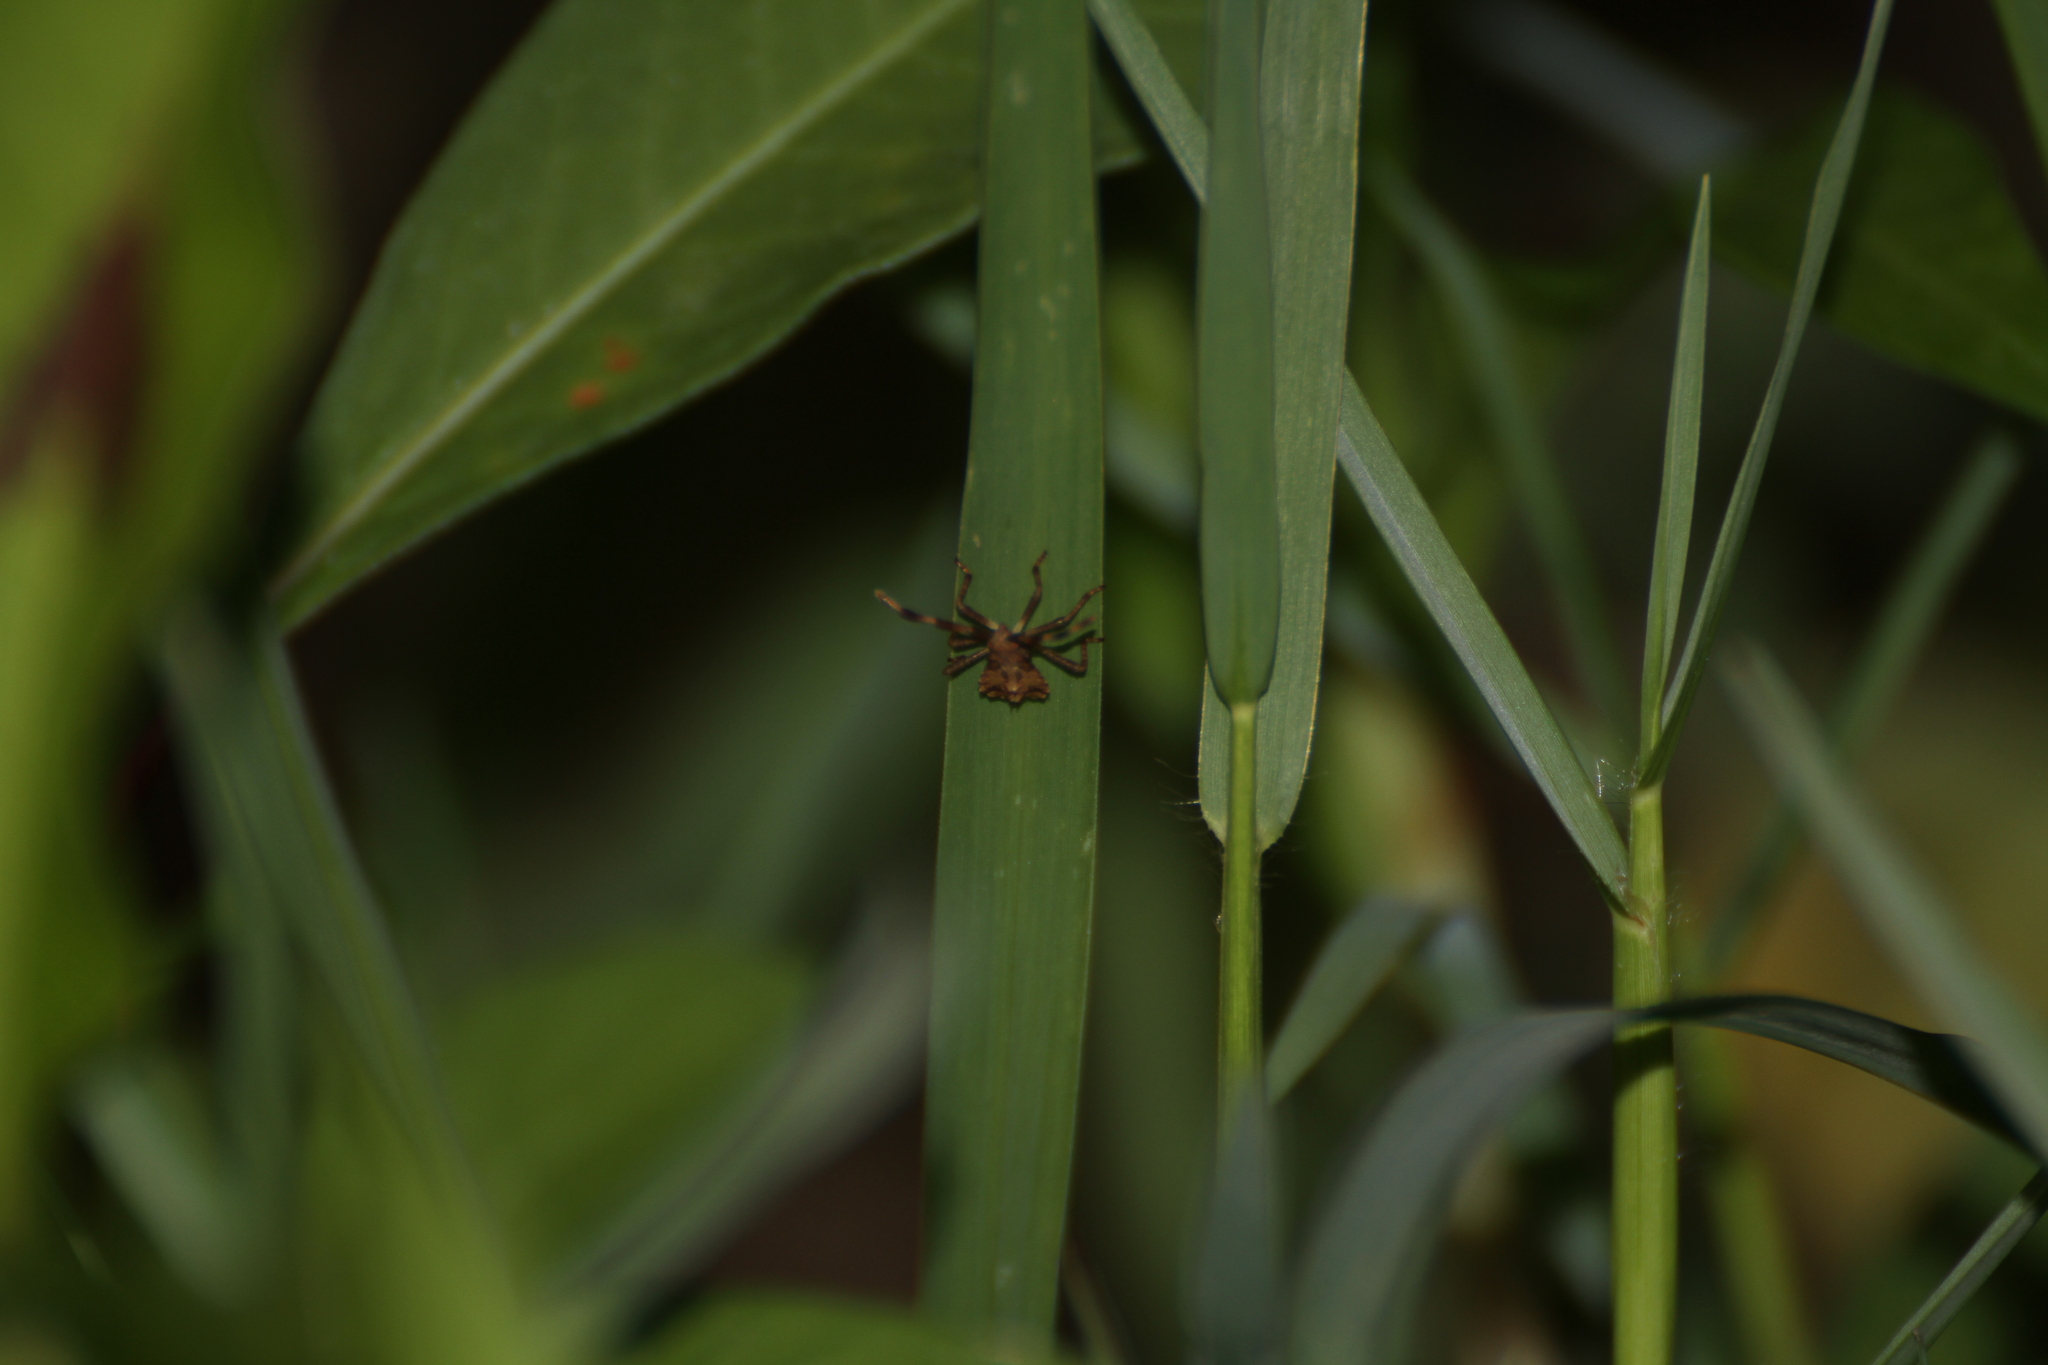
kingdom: Animalia
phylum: Arthropoda
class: Insecta
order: Hemiptera
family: Coreidae
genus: Coreus
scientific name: Coreus marginatus
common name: Dock bug
